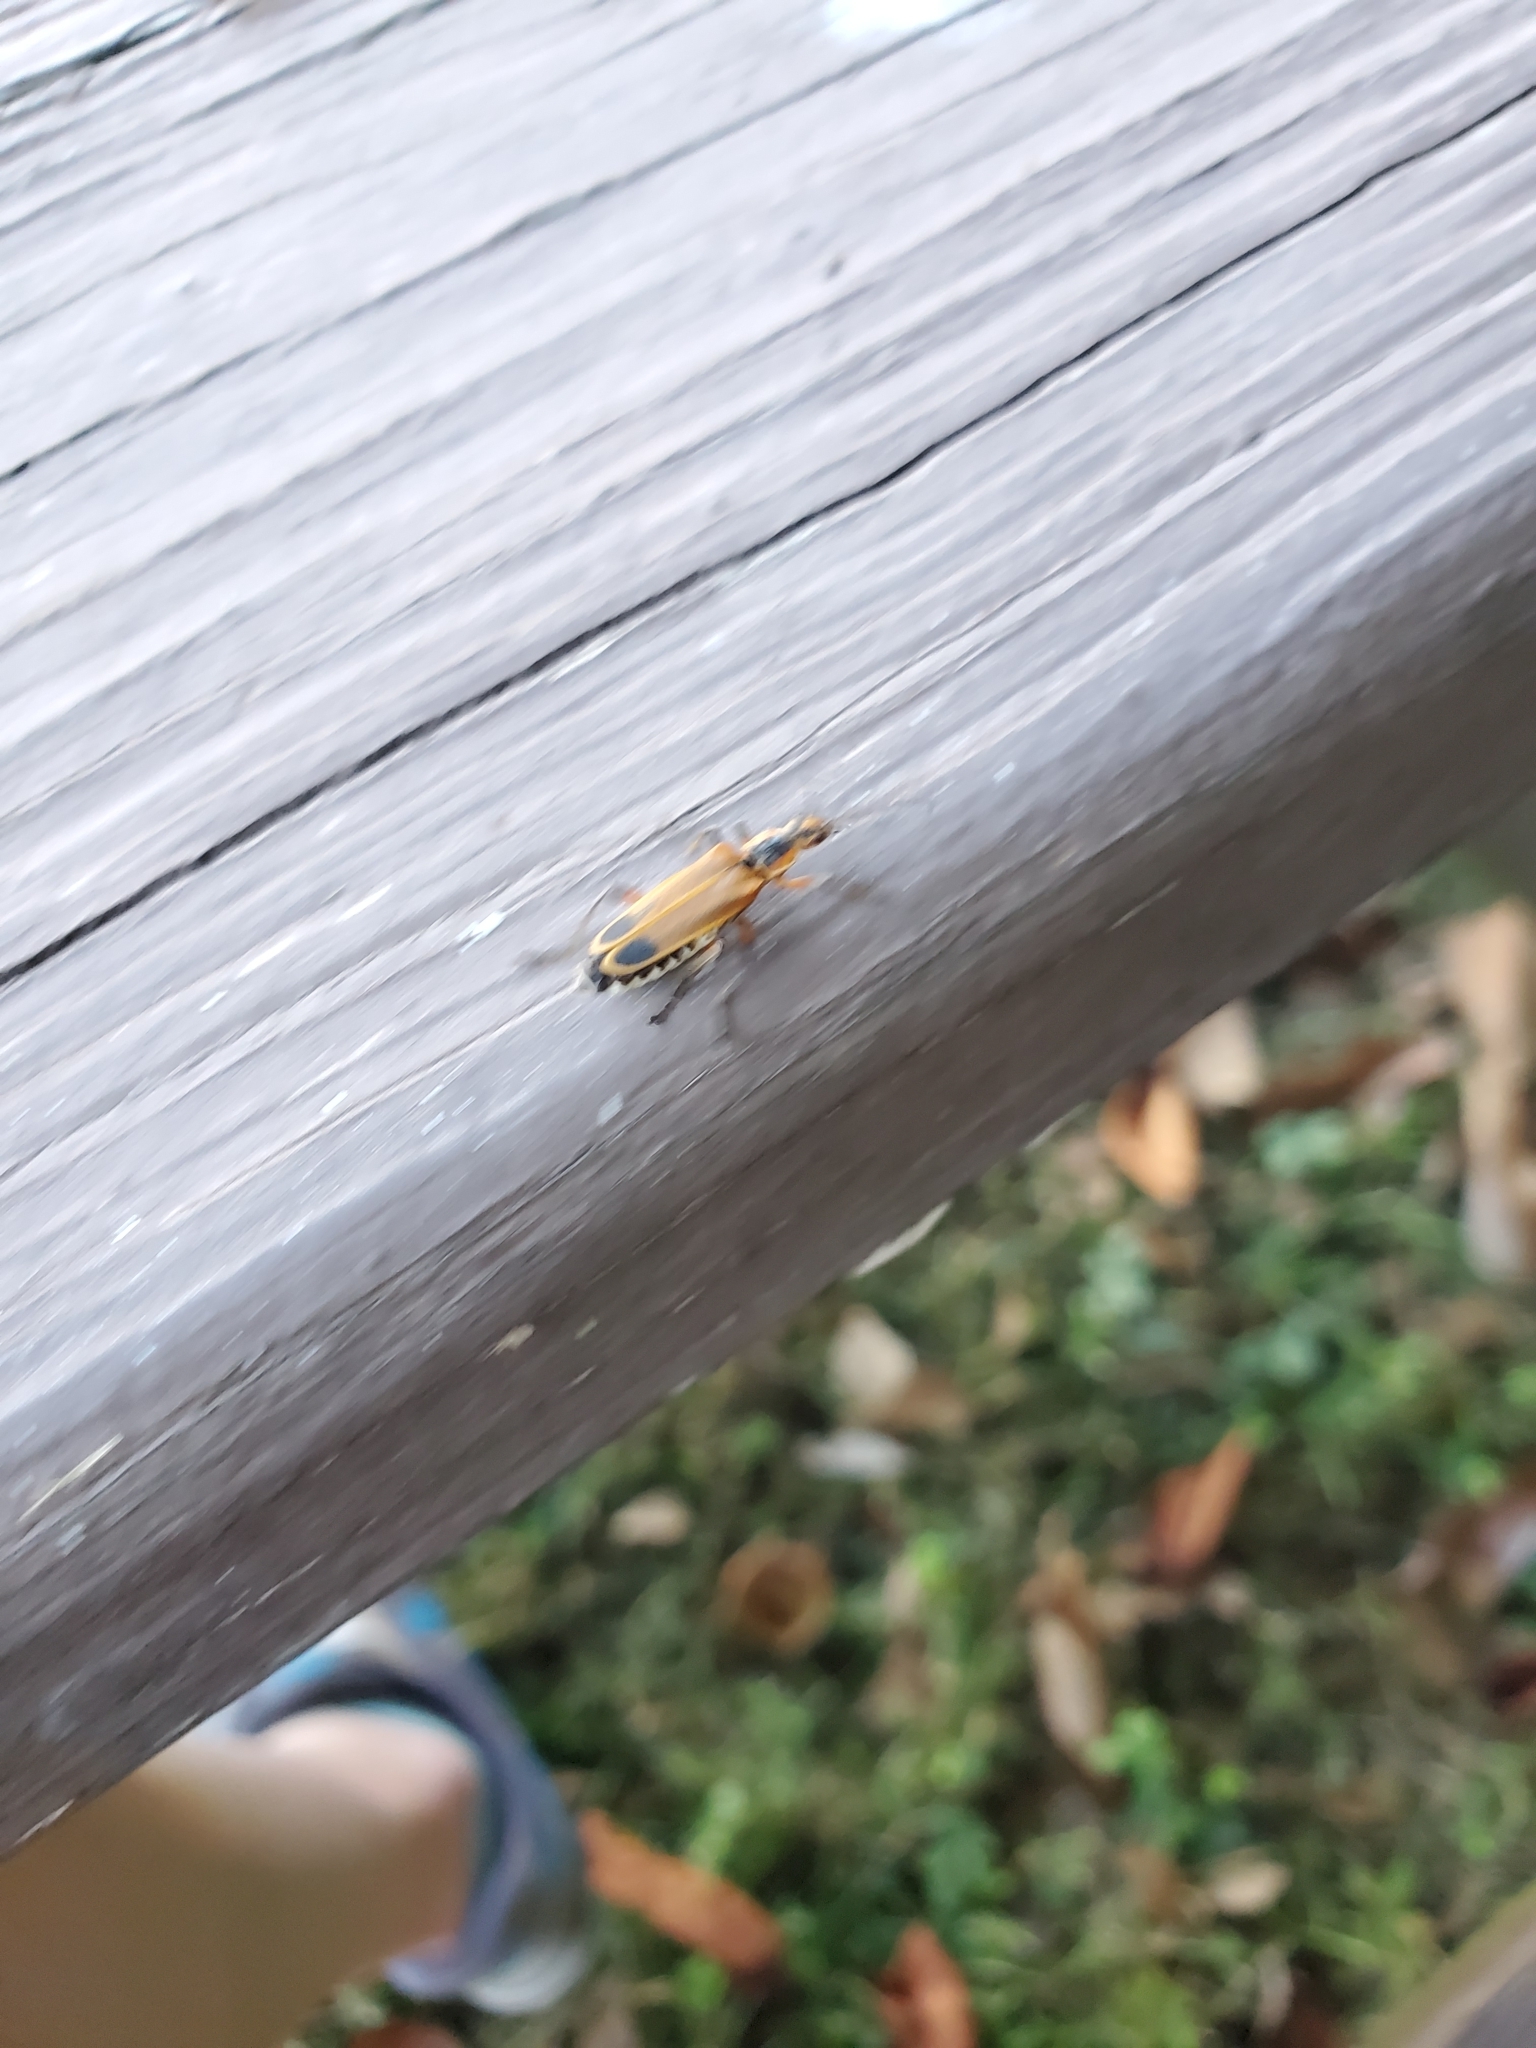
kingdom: Animalia
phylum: Arthropoda
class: Insecta
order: Coleoptera
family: Cantharidae
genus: Chauliognathus
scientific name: Chauliognathus marginatus
